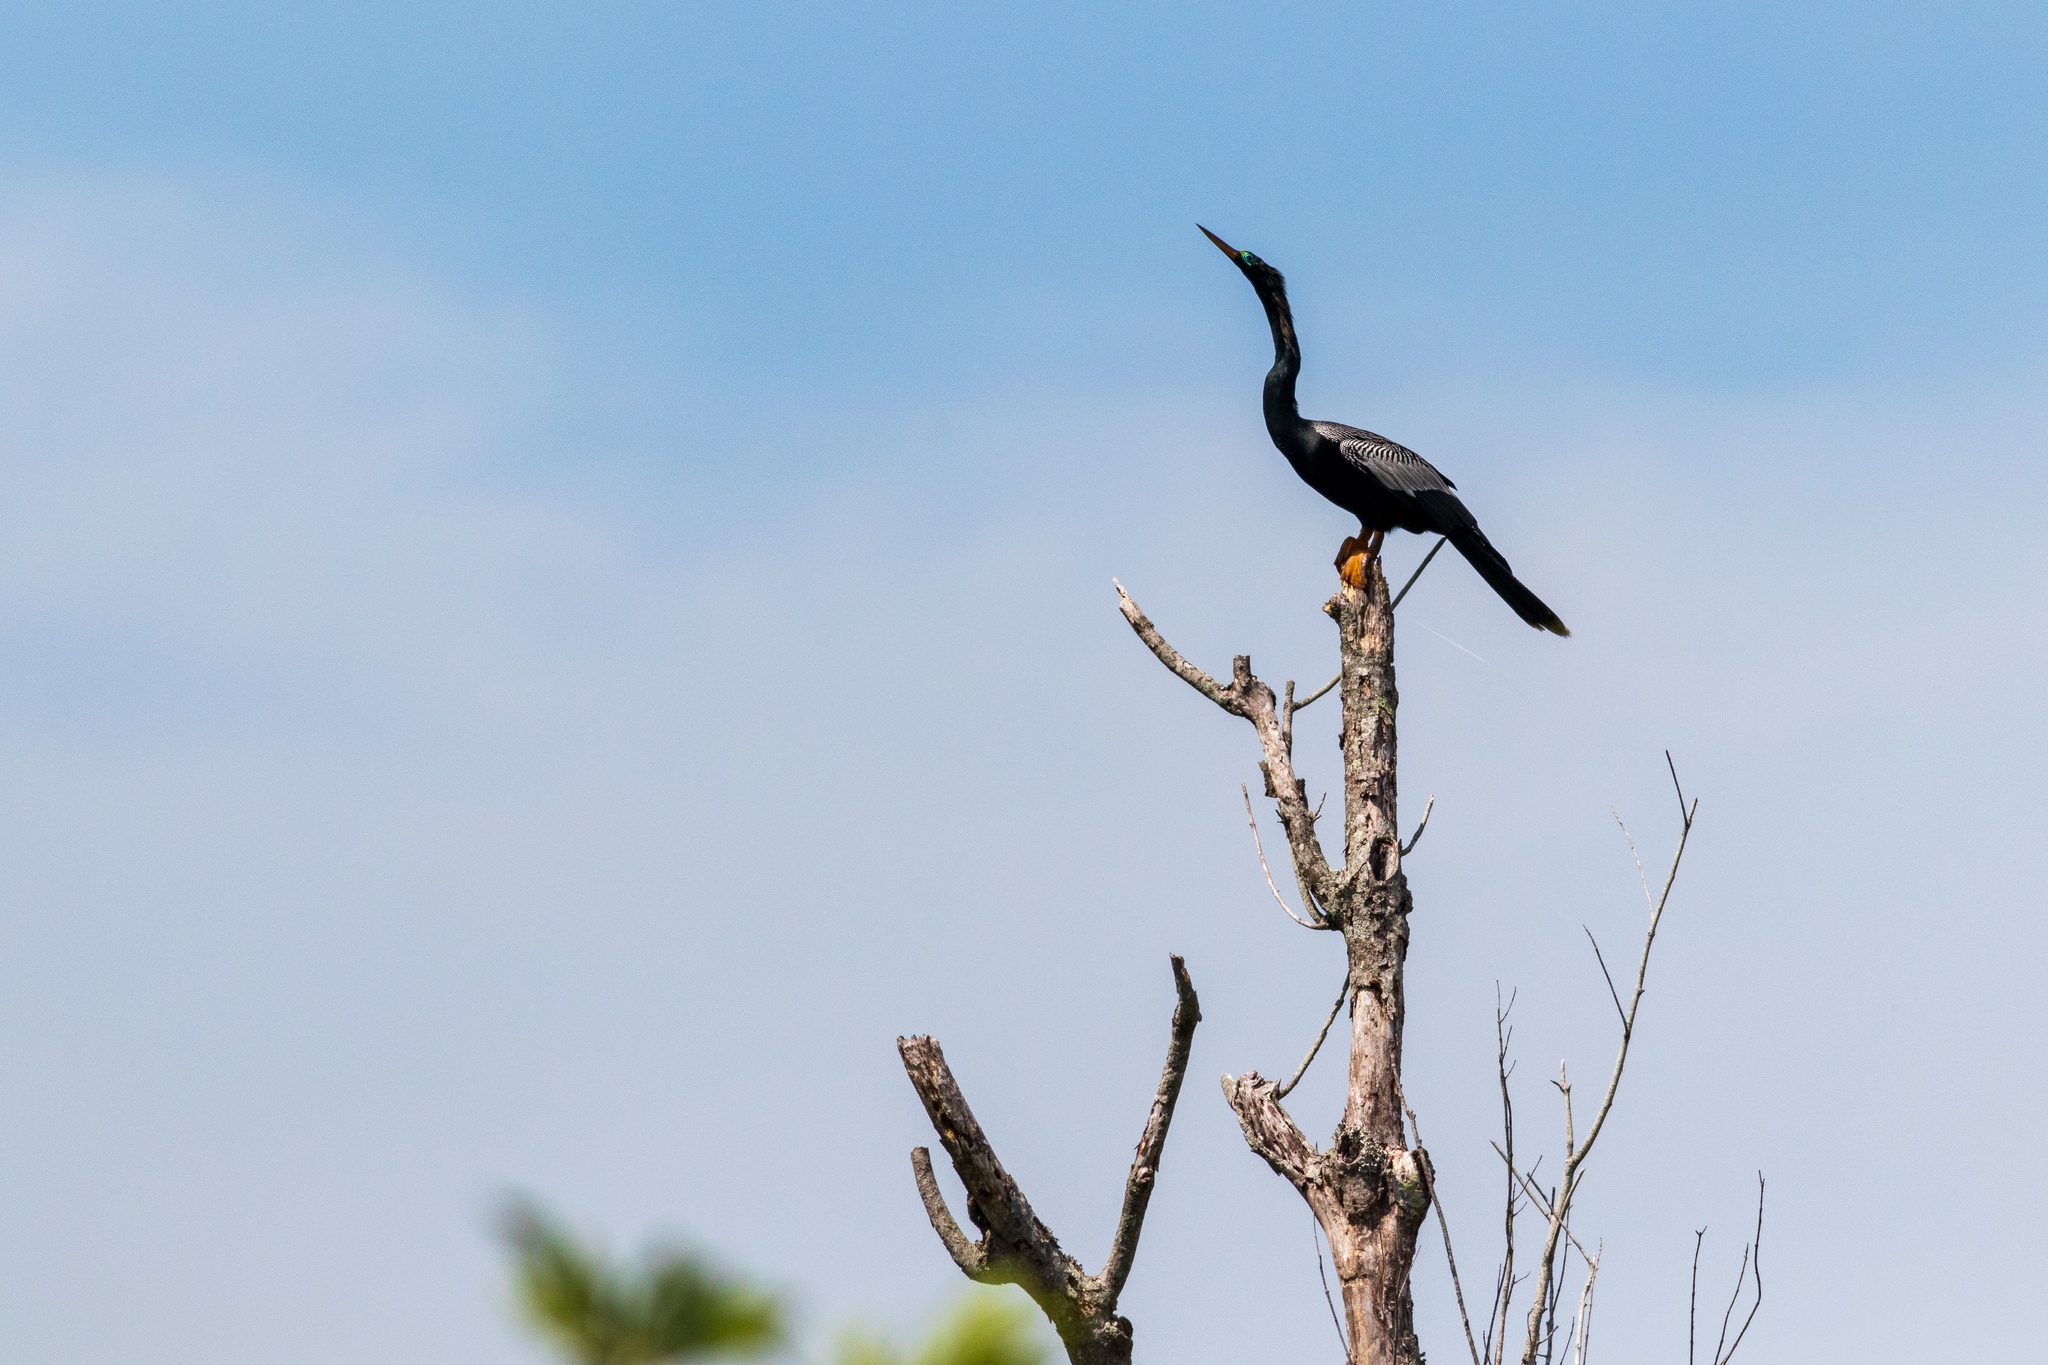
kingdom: Animalia
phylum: Chordata
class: Aves
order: Suliformes
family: Anhingidae
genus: Anhinga
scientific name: Anhinga anhinga
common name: Anhinga
